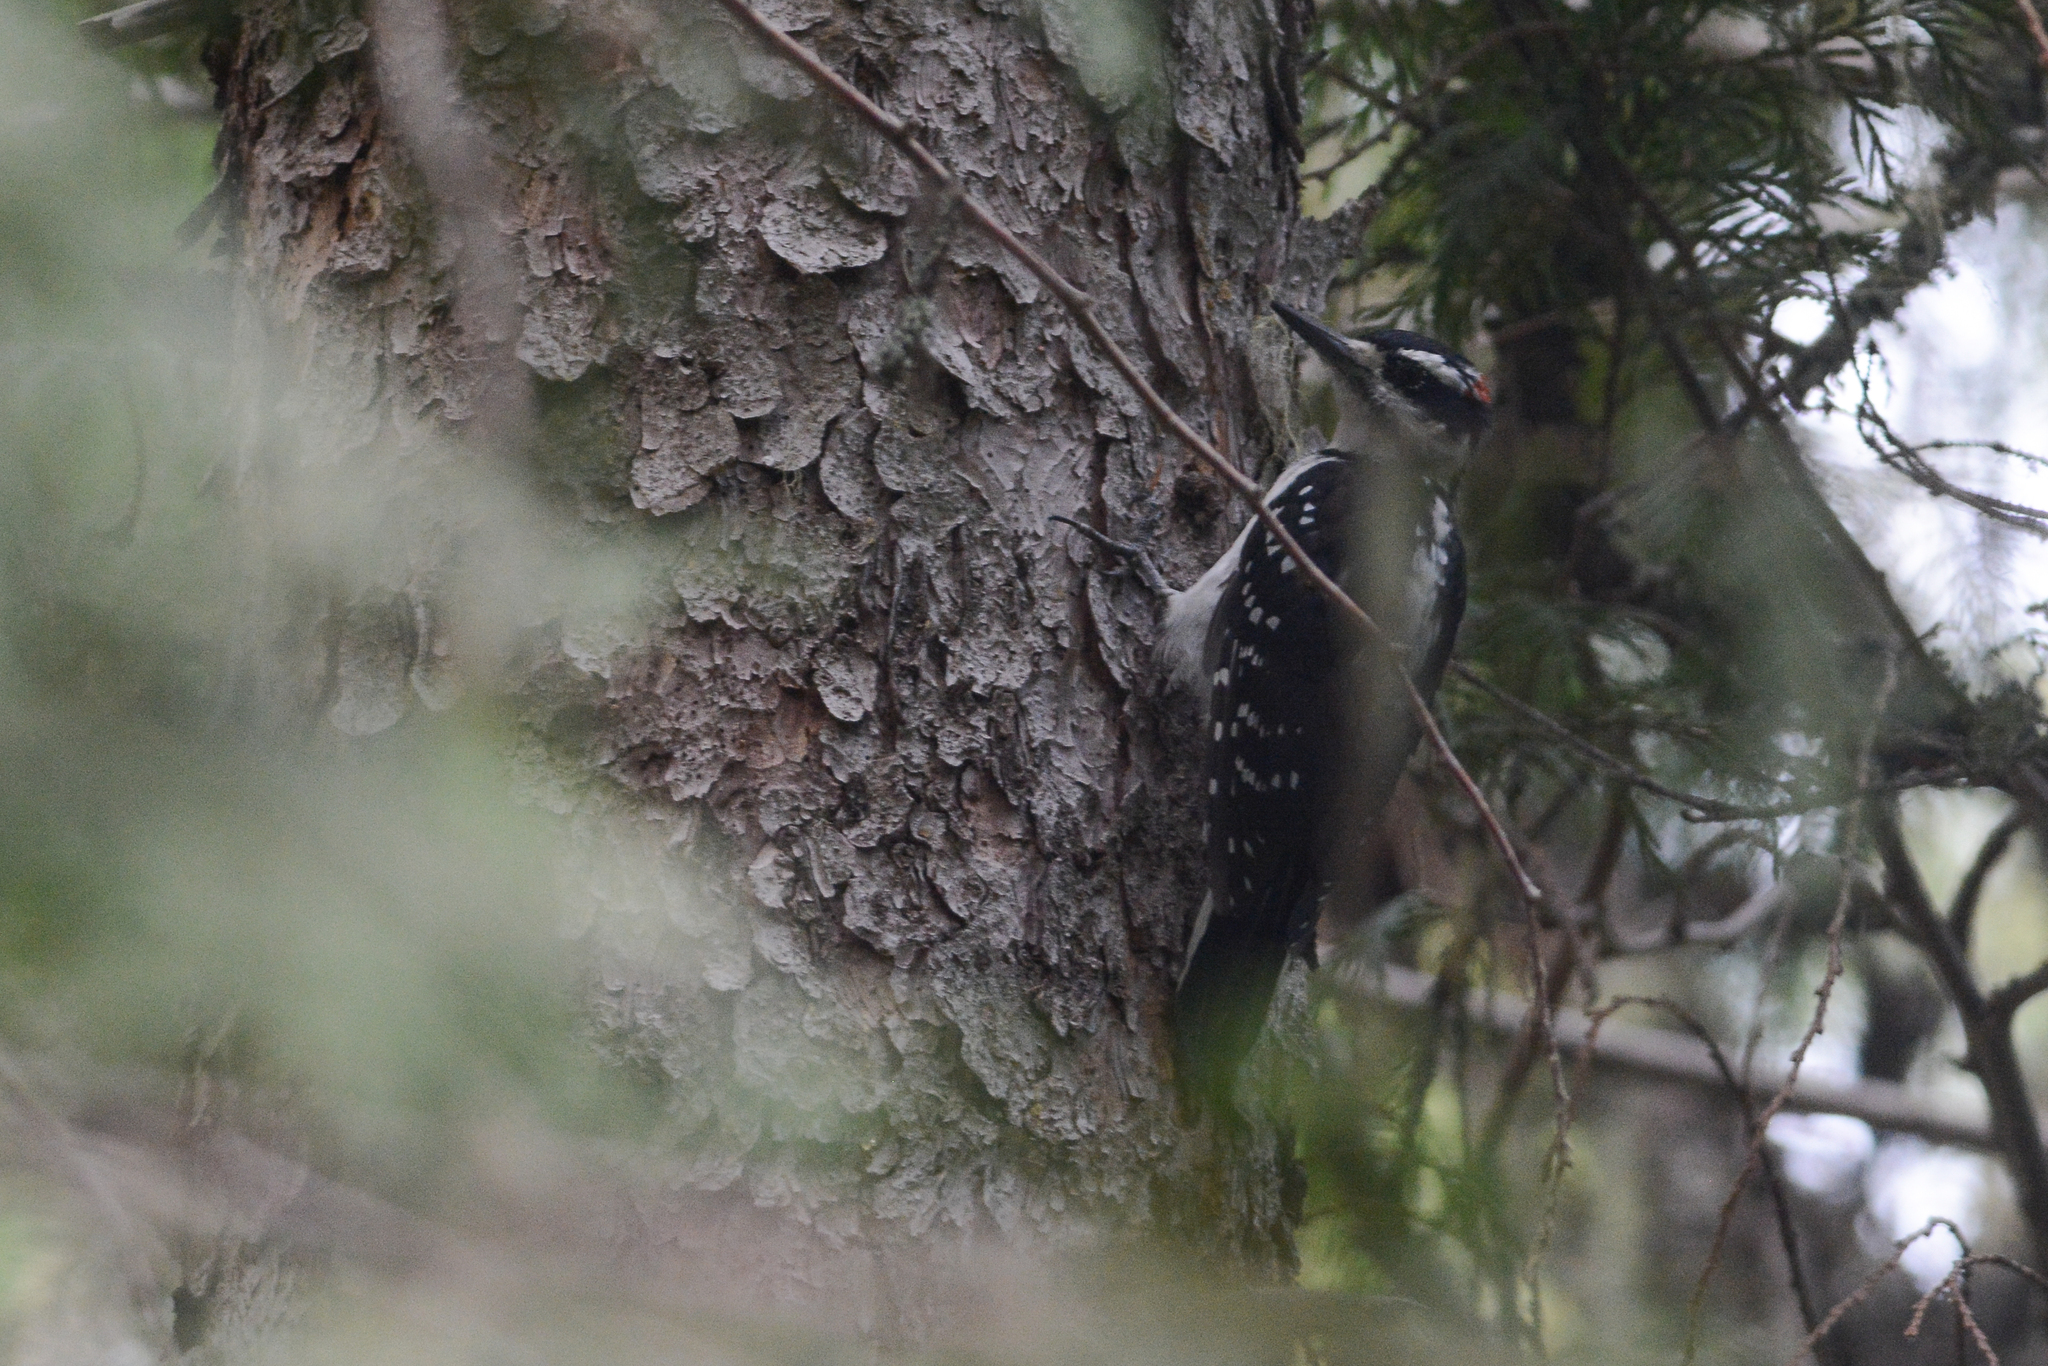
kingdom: Animalia
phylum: Chordata
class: Aves
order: Piciformes
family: Picidae
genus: Leuconotopicus
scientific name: Leuconotopicus villosus
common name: Hairy woodpecker
